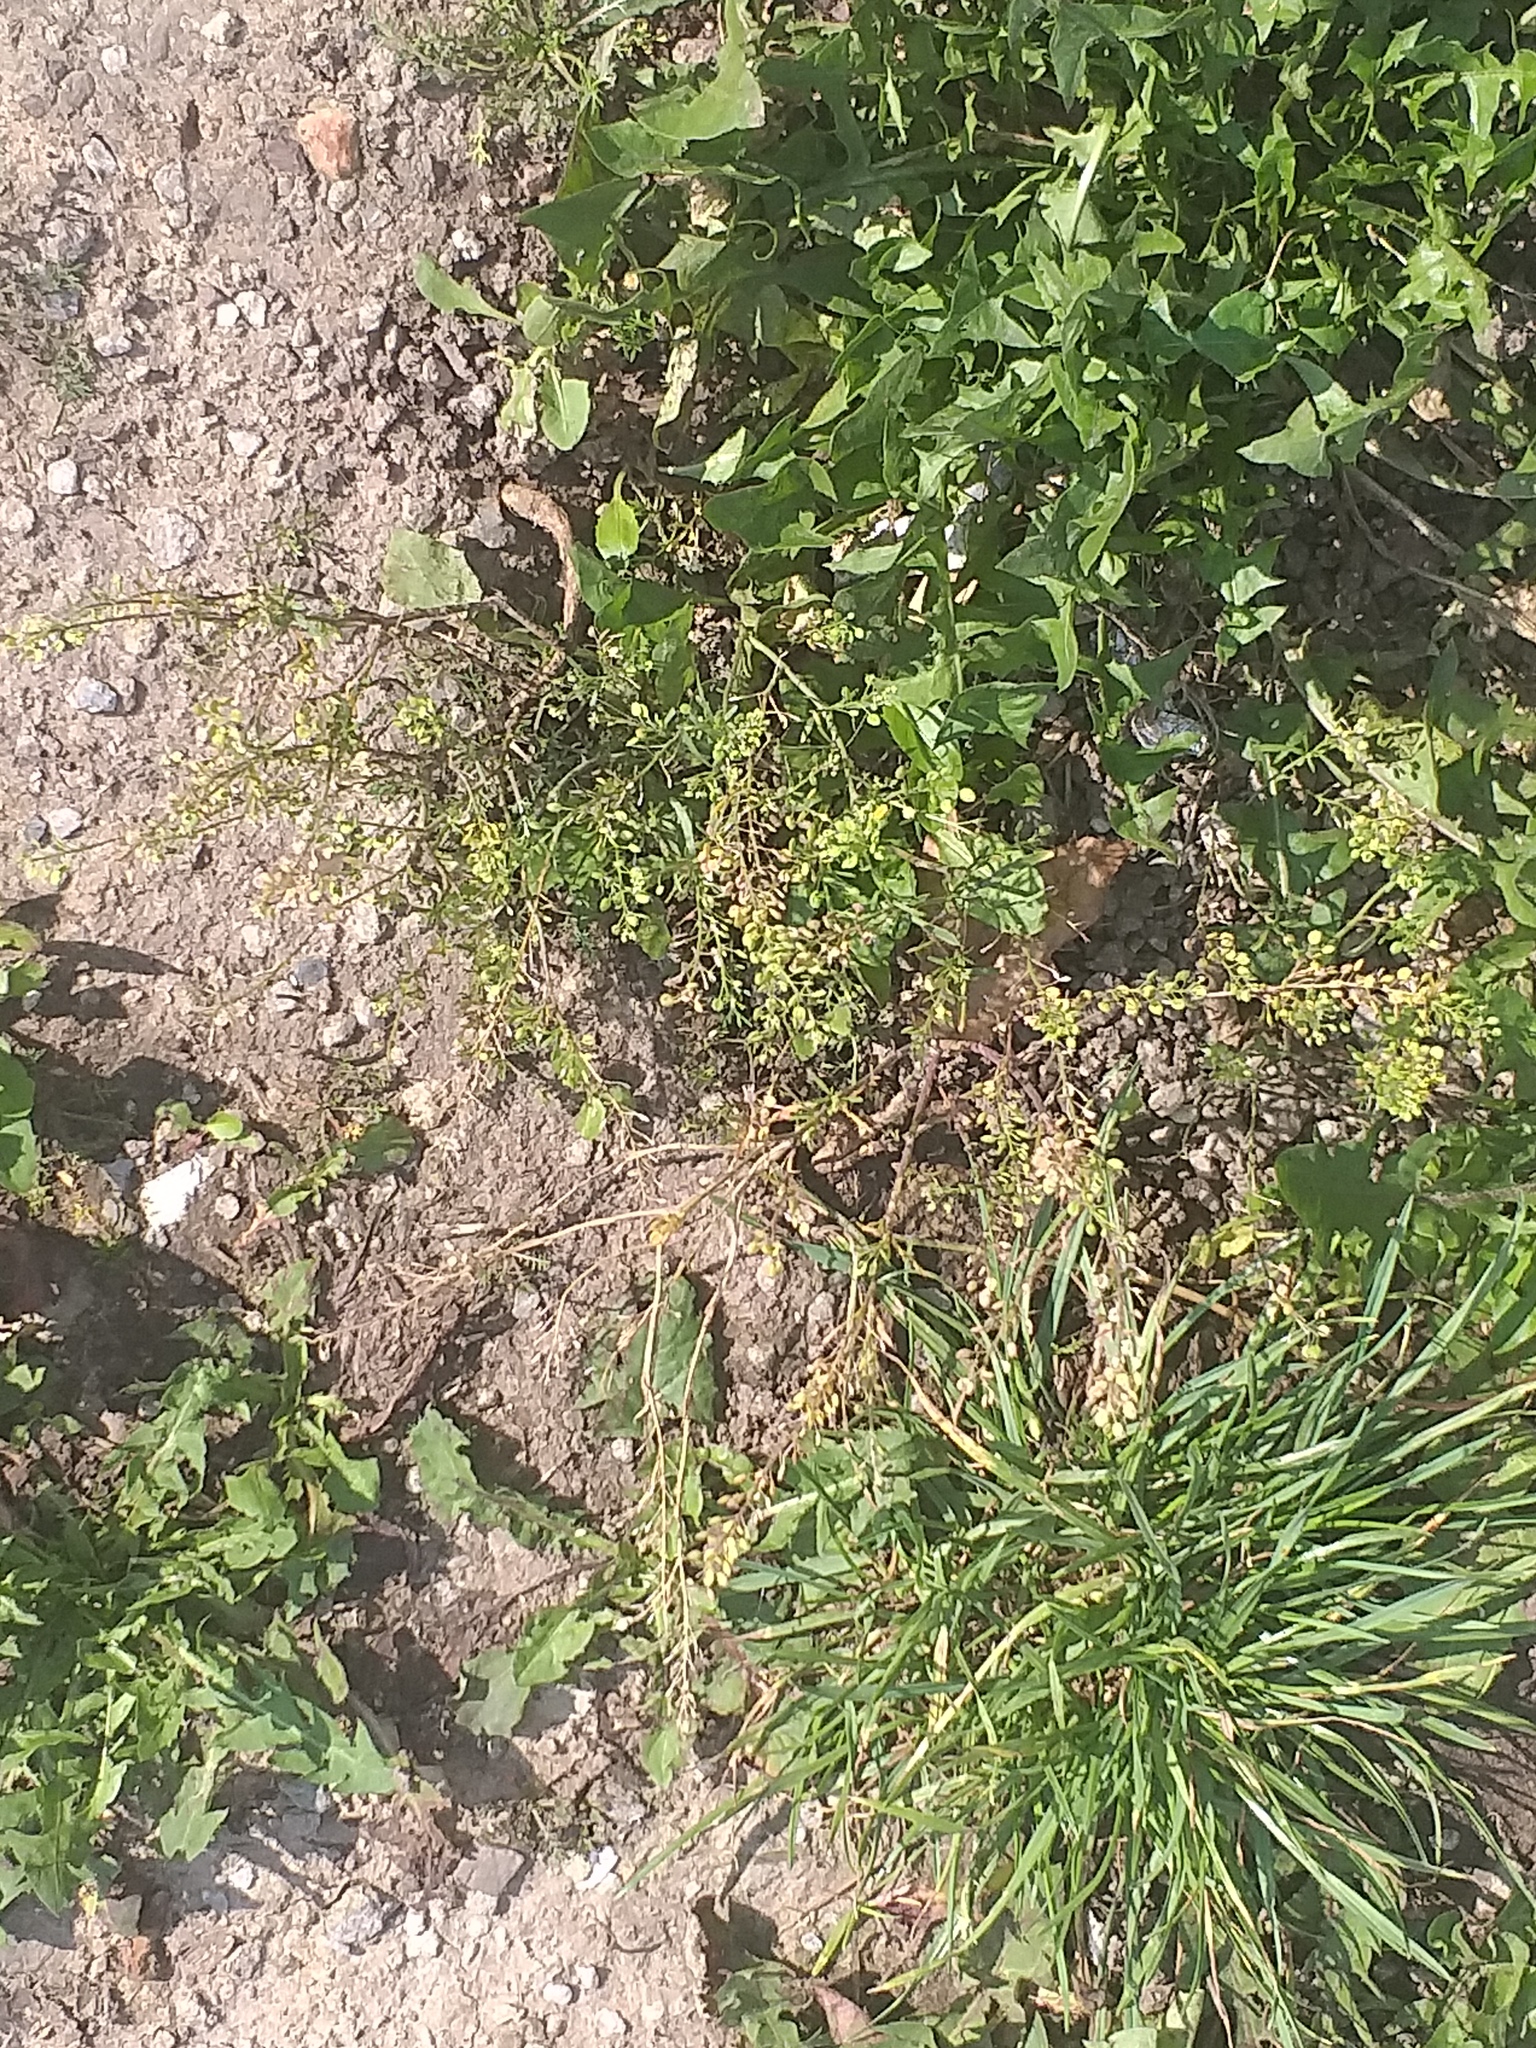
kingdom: Plantae
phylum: Tracheophyta
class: Magnoliopsida
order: Brassicales
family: Brassicaceae
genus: Lepidium
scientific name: Lepidium ruderale
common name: Narrow-leaved pepperwort
